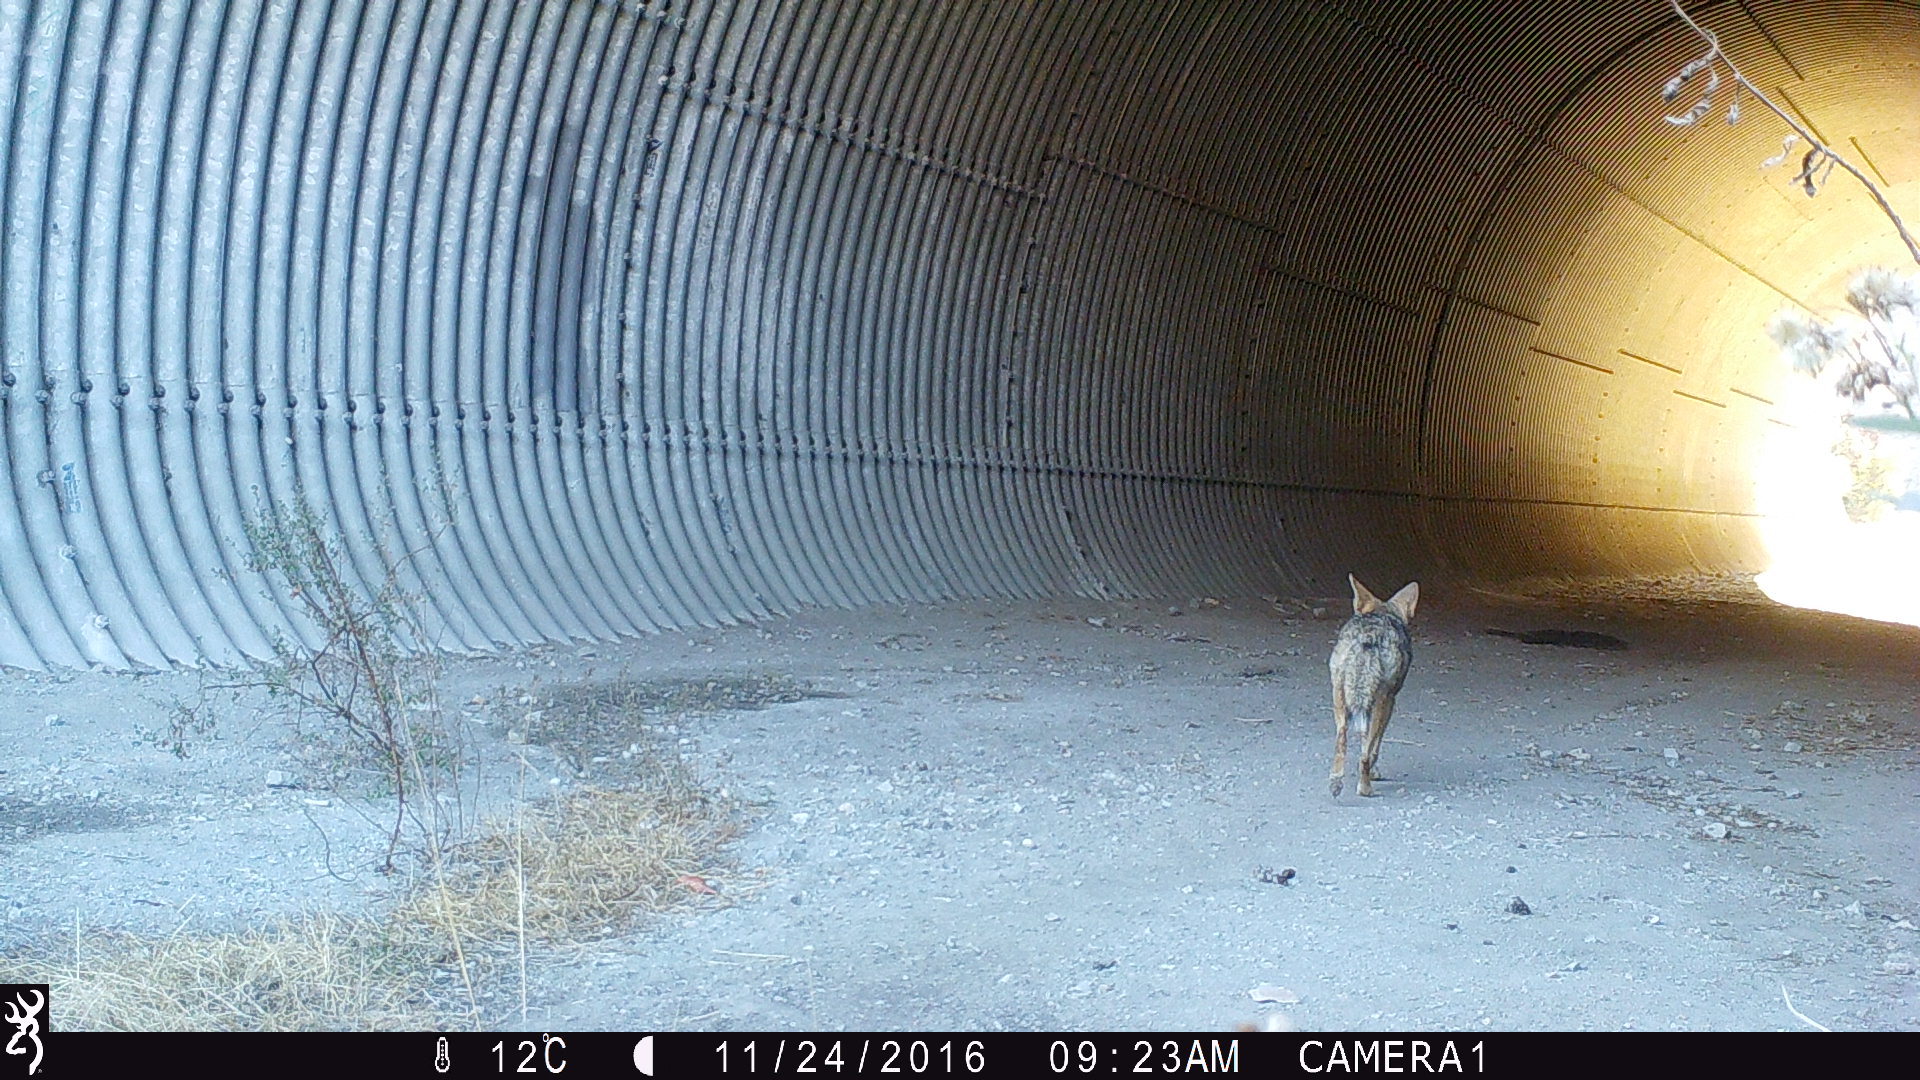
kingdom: Animalia
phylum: Chordata
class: Mammalia
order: Carnivora
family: Canidae
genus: Canis
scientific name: Canis latrans
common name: Coyote
